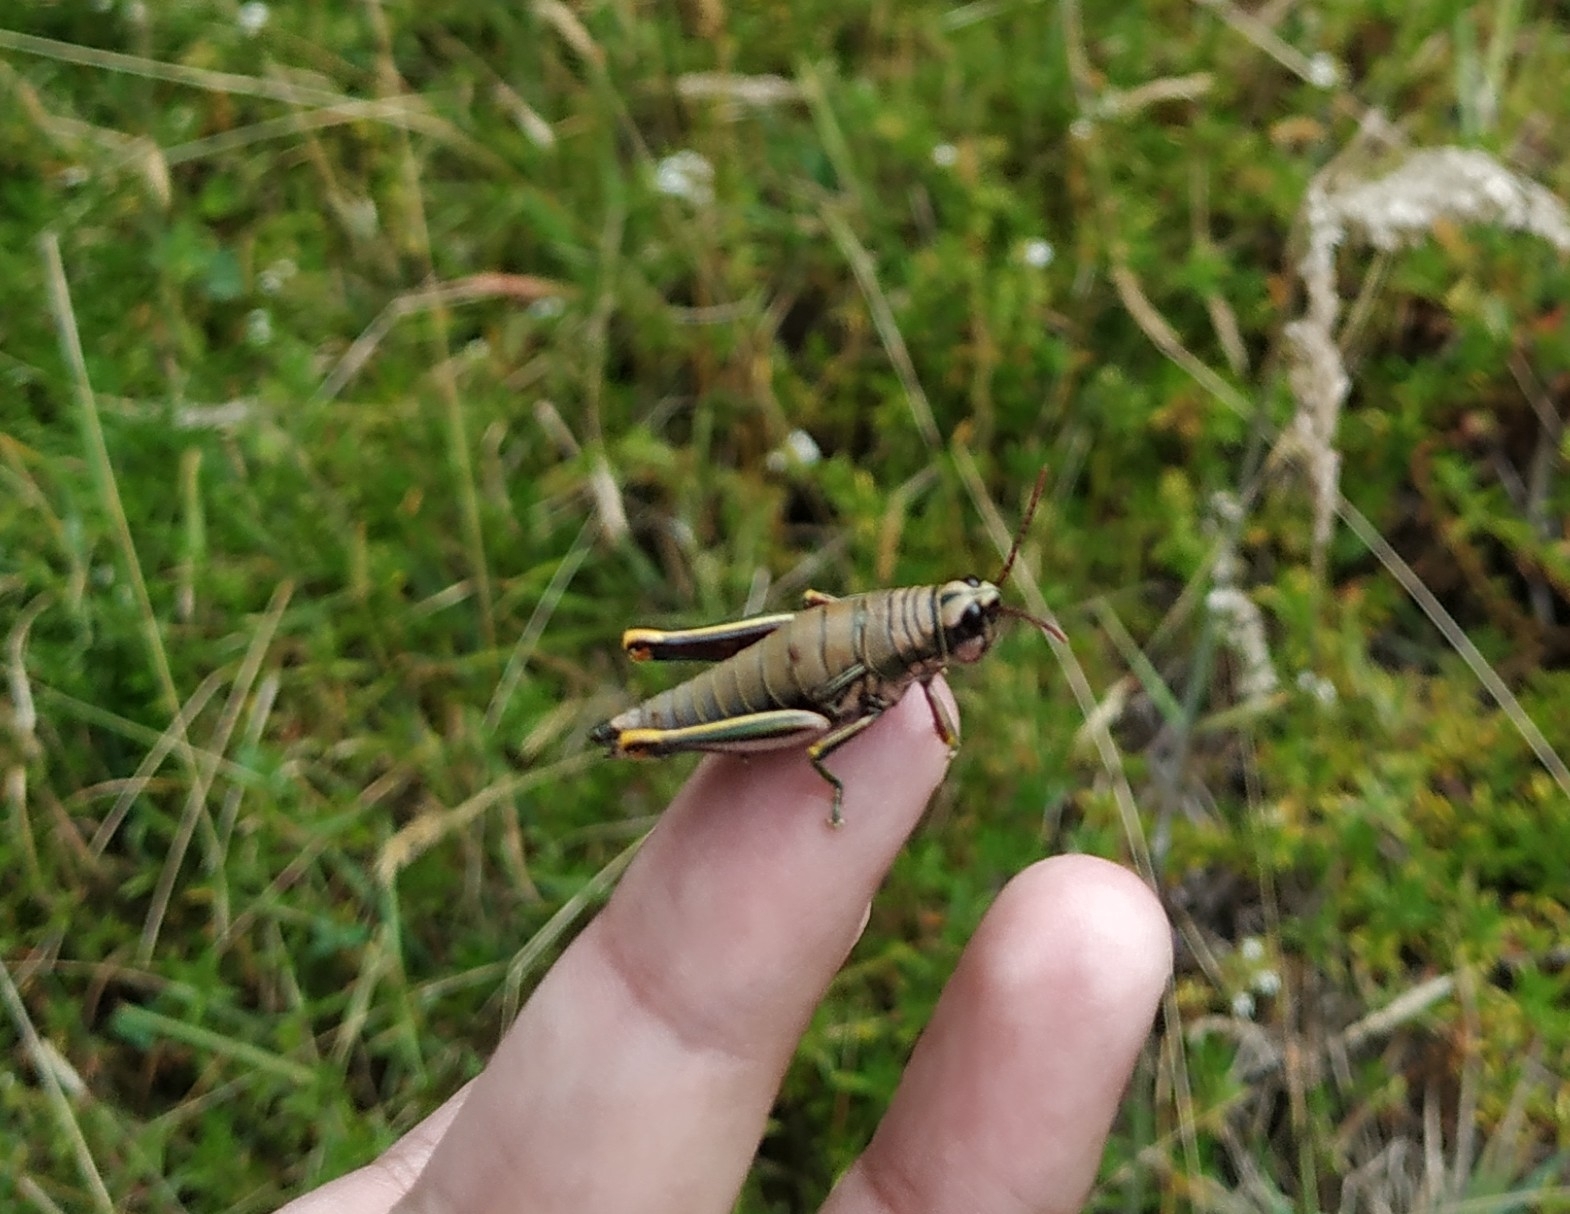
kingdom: Animalia
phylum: Arthropoda
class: Insecta
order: Orthoptera
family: Acrididae
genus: Agesander
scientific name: Agesander ruficornis
